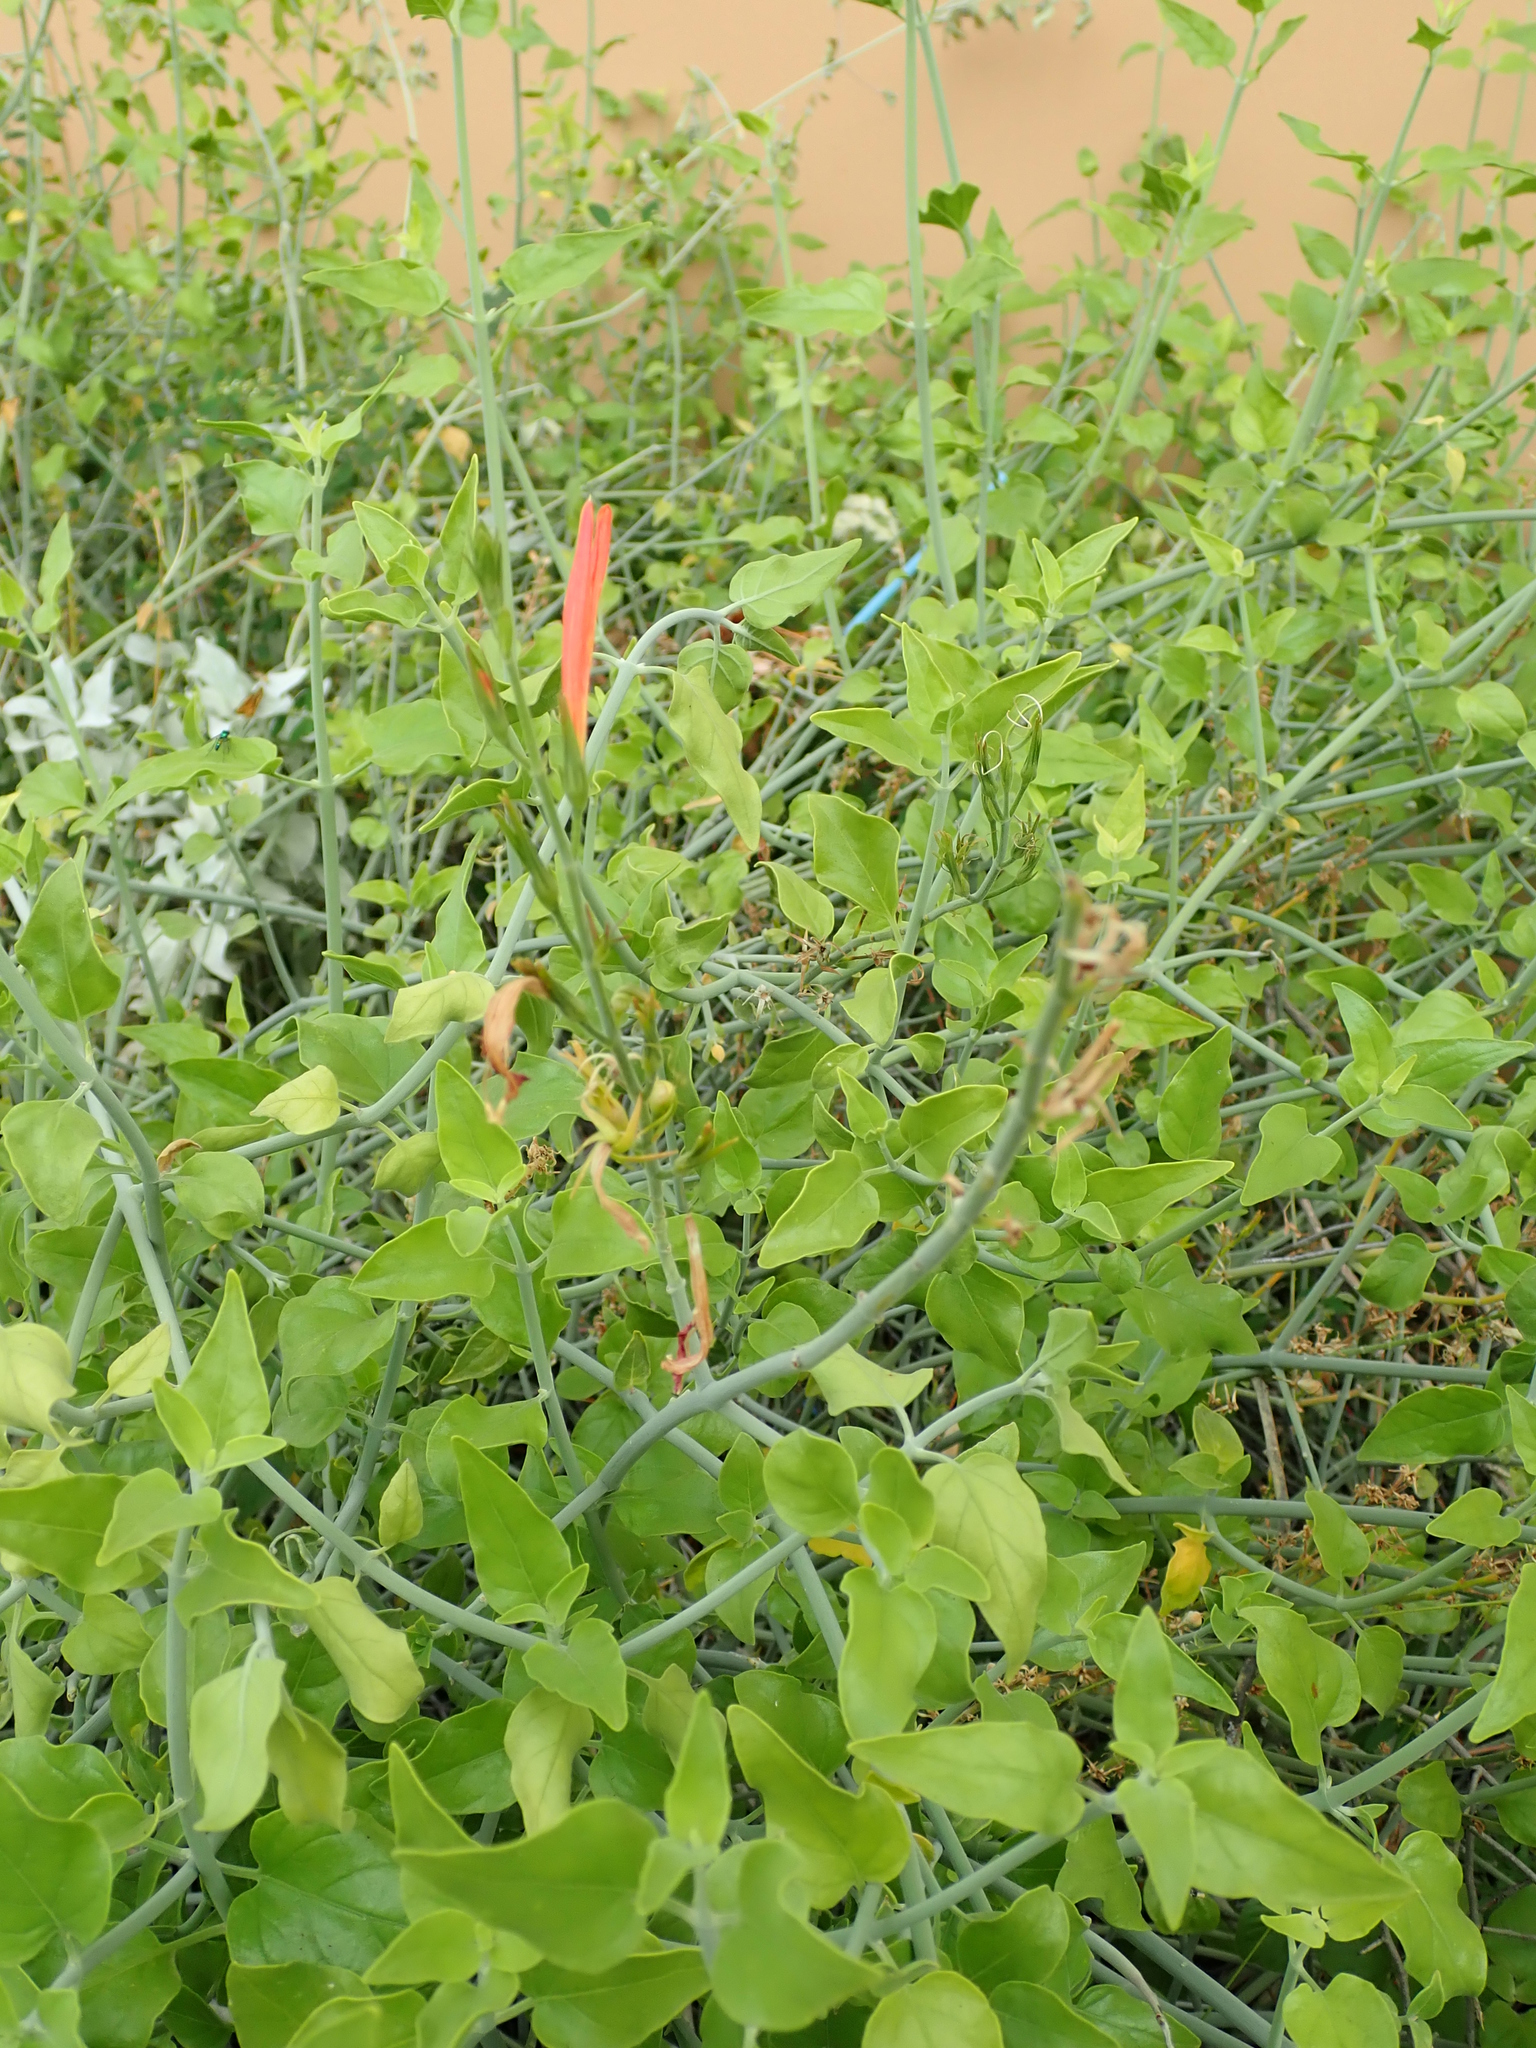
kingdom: Plantae
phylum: Tracheophyta
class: Magnoliopsida
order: Lamiales
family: Acanthaceae
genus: Justicia
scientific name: Justicia californica
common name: Chuparosa-honeysuckle
